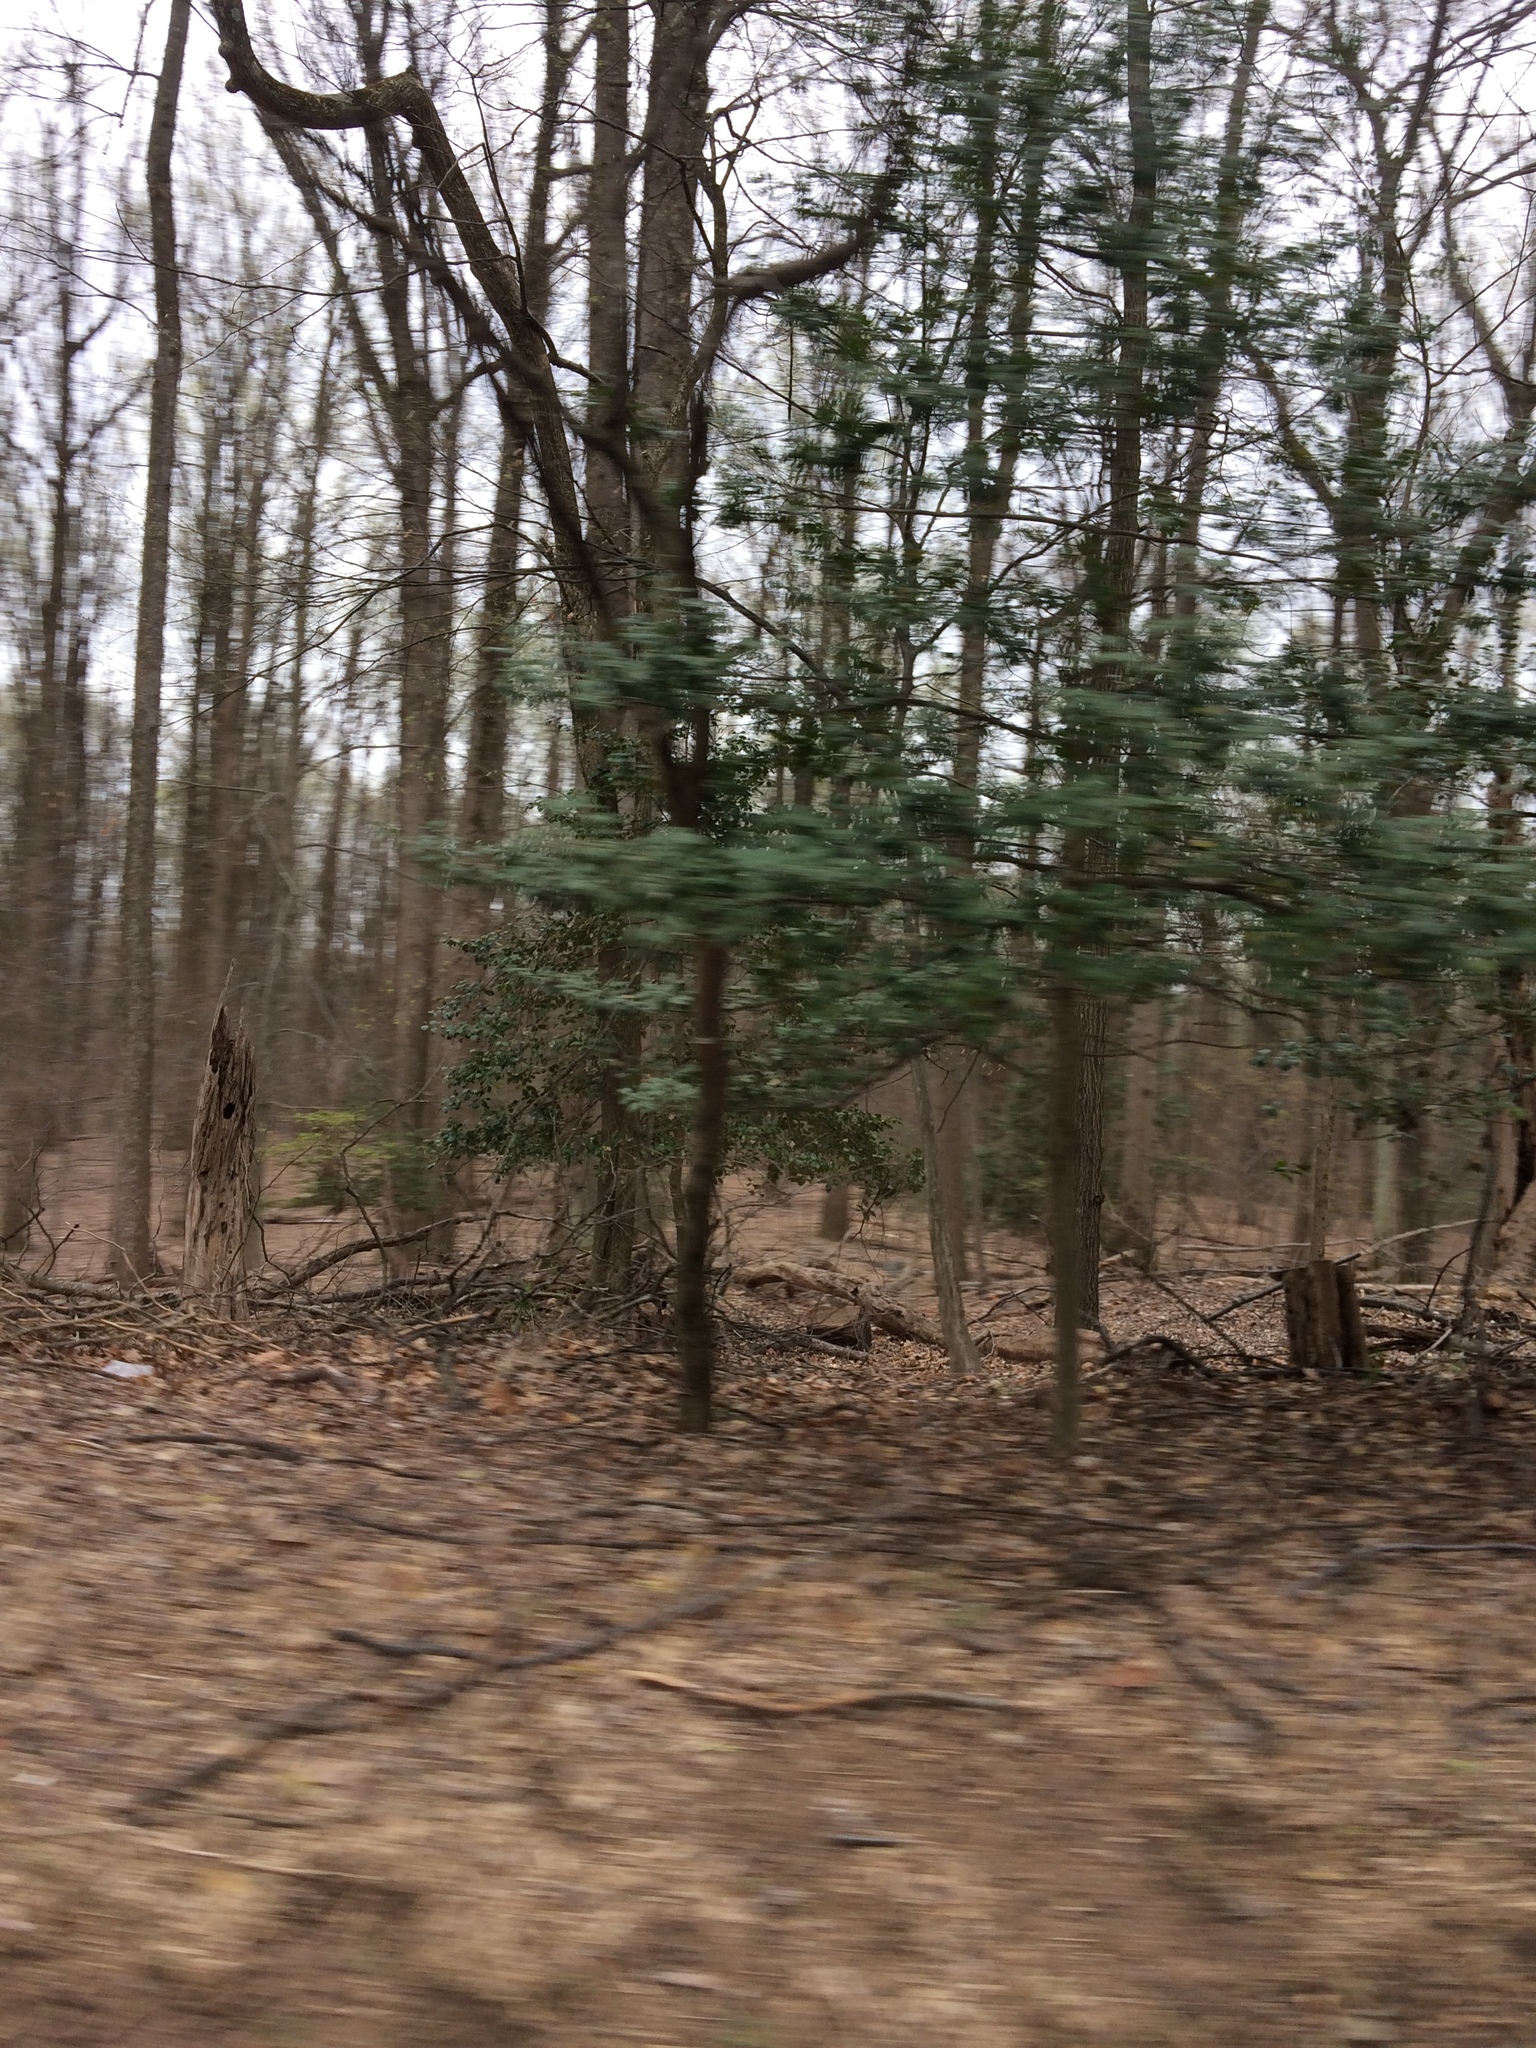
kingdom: Plantae
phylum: Tracheophyta
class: Magnoliopsida
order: Aquifoliales
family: Aquifoliaceae
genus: Ilex
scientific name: Ilex opaca
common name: American holly
